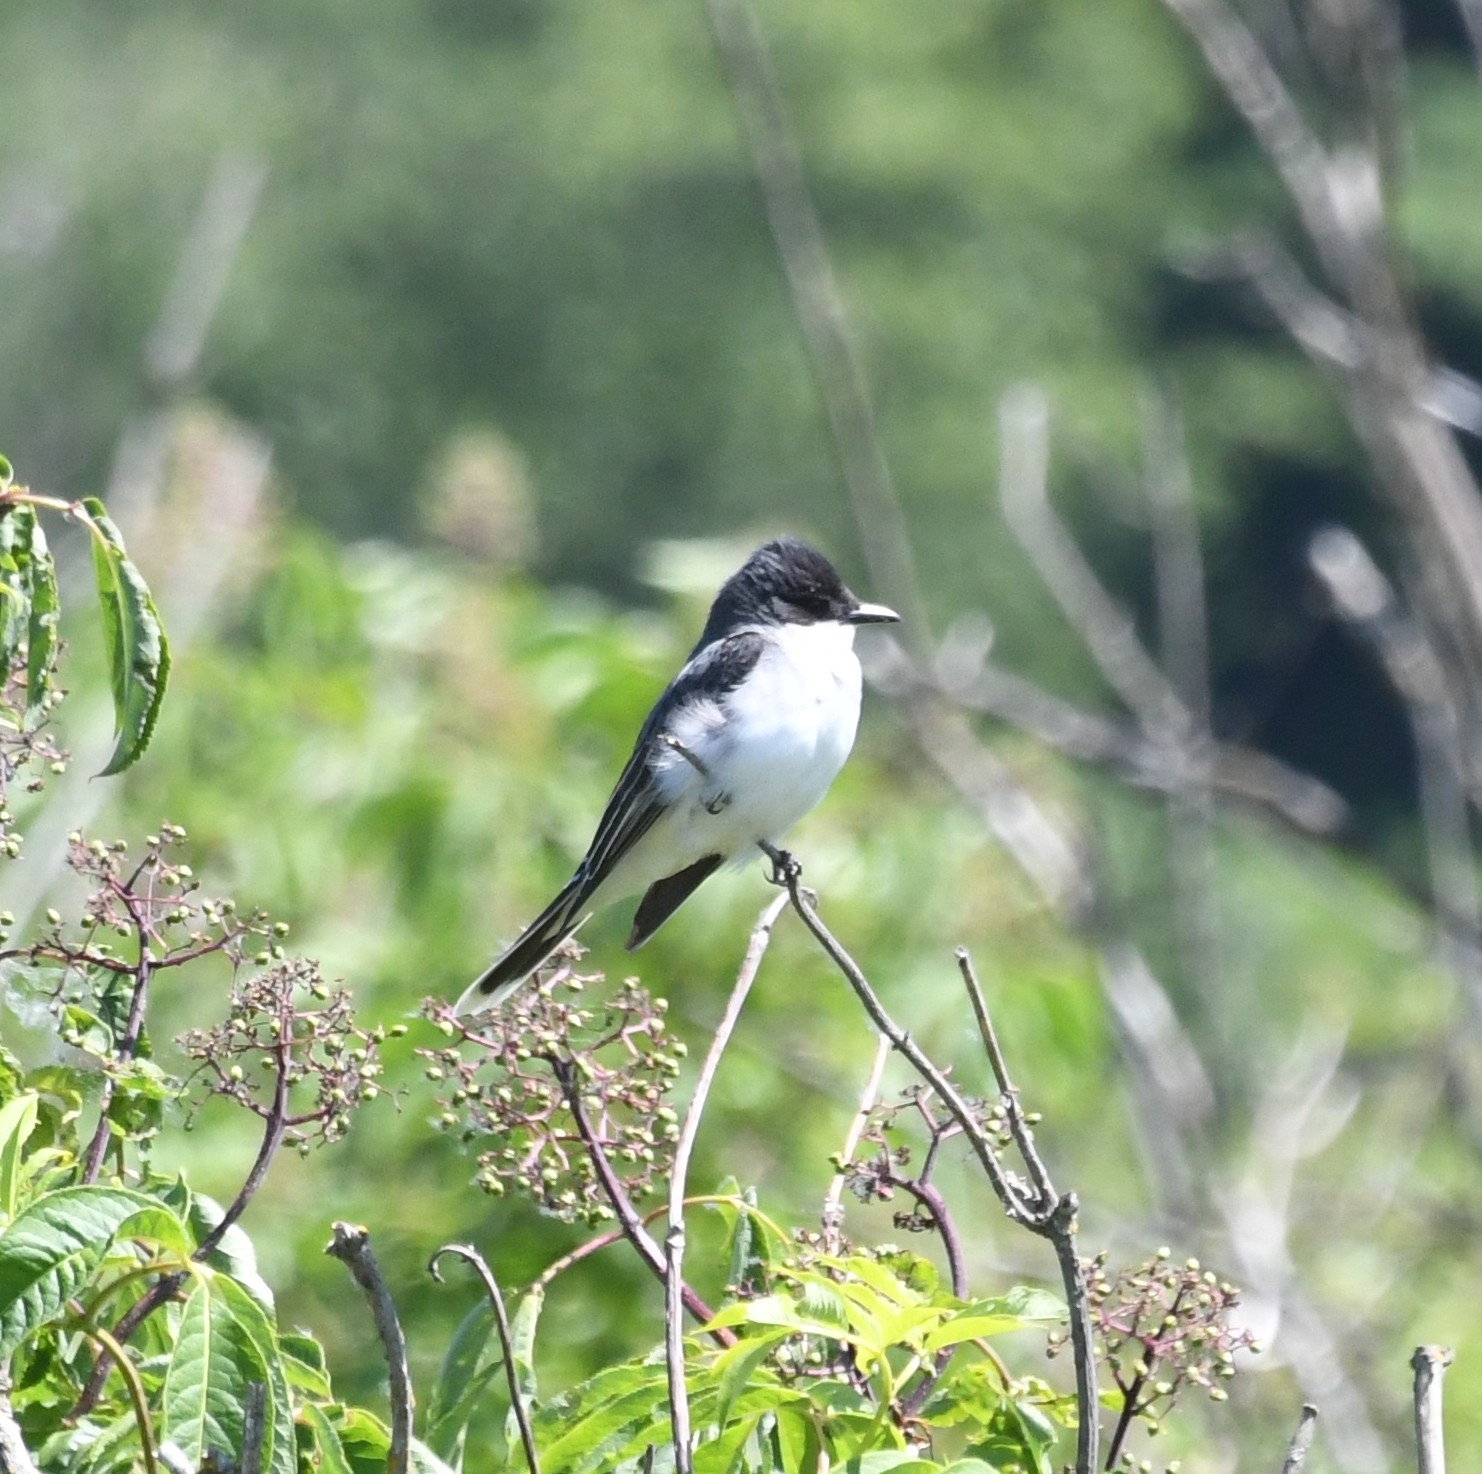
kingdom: Animalia
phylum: Chordata
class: Aves
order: Passeriformes
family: Tyrannidae
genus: Tyrannus
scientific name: Tyrannus tyrannus
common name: Eastern kingbird
